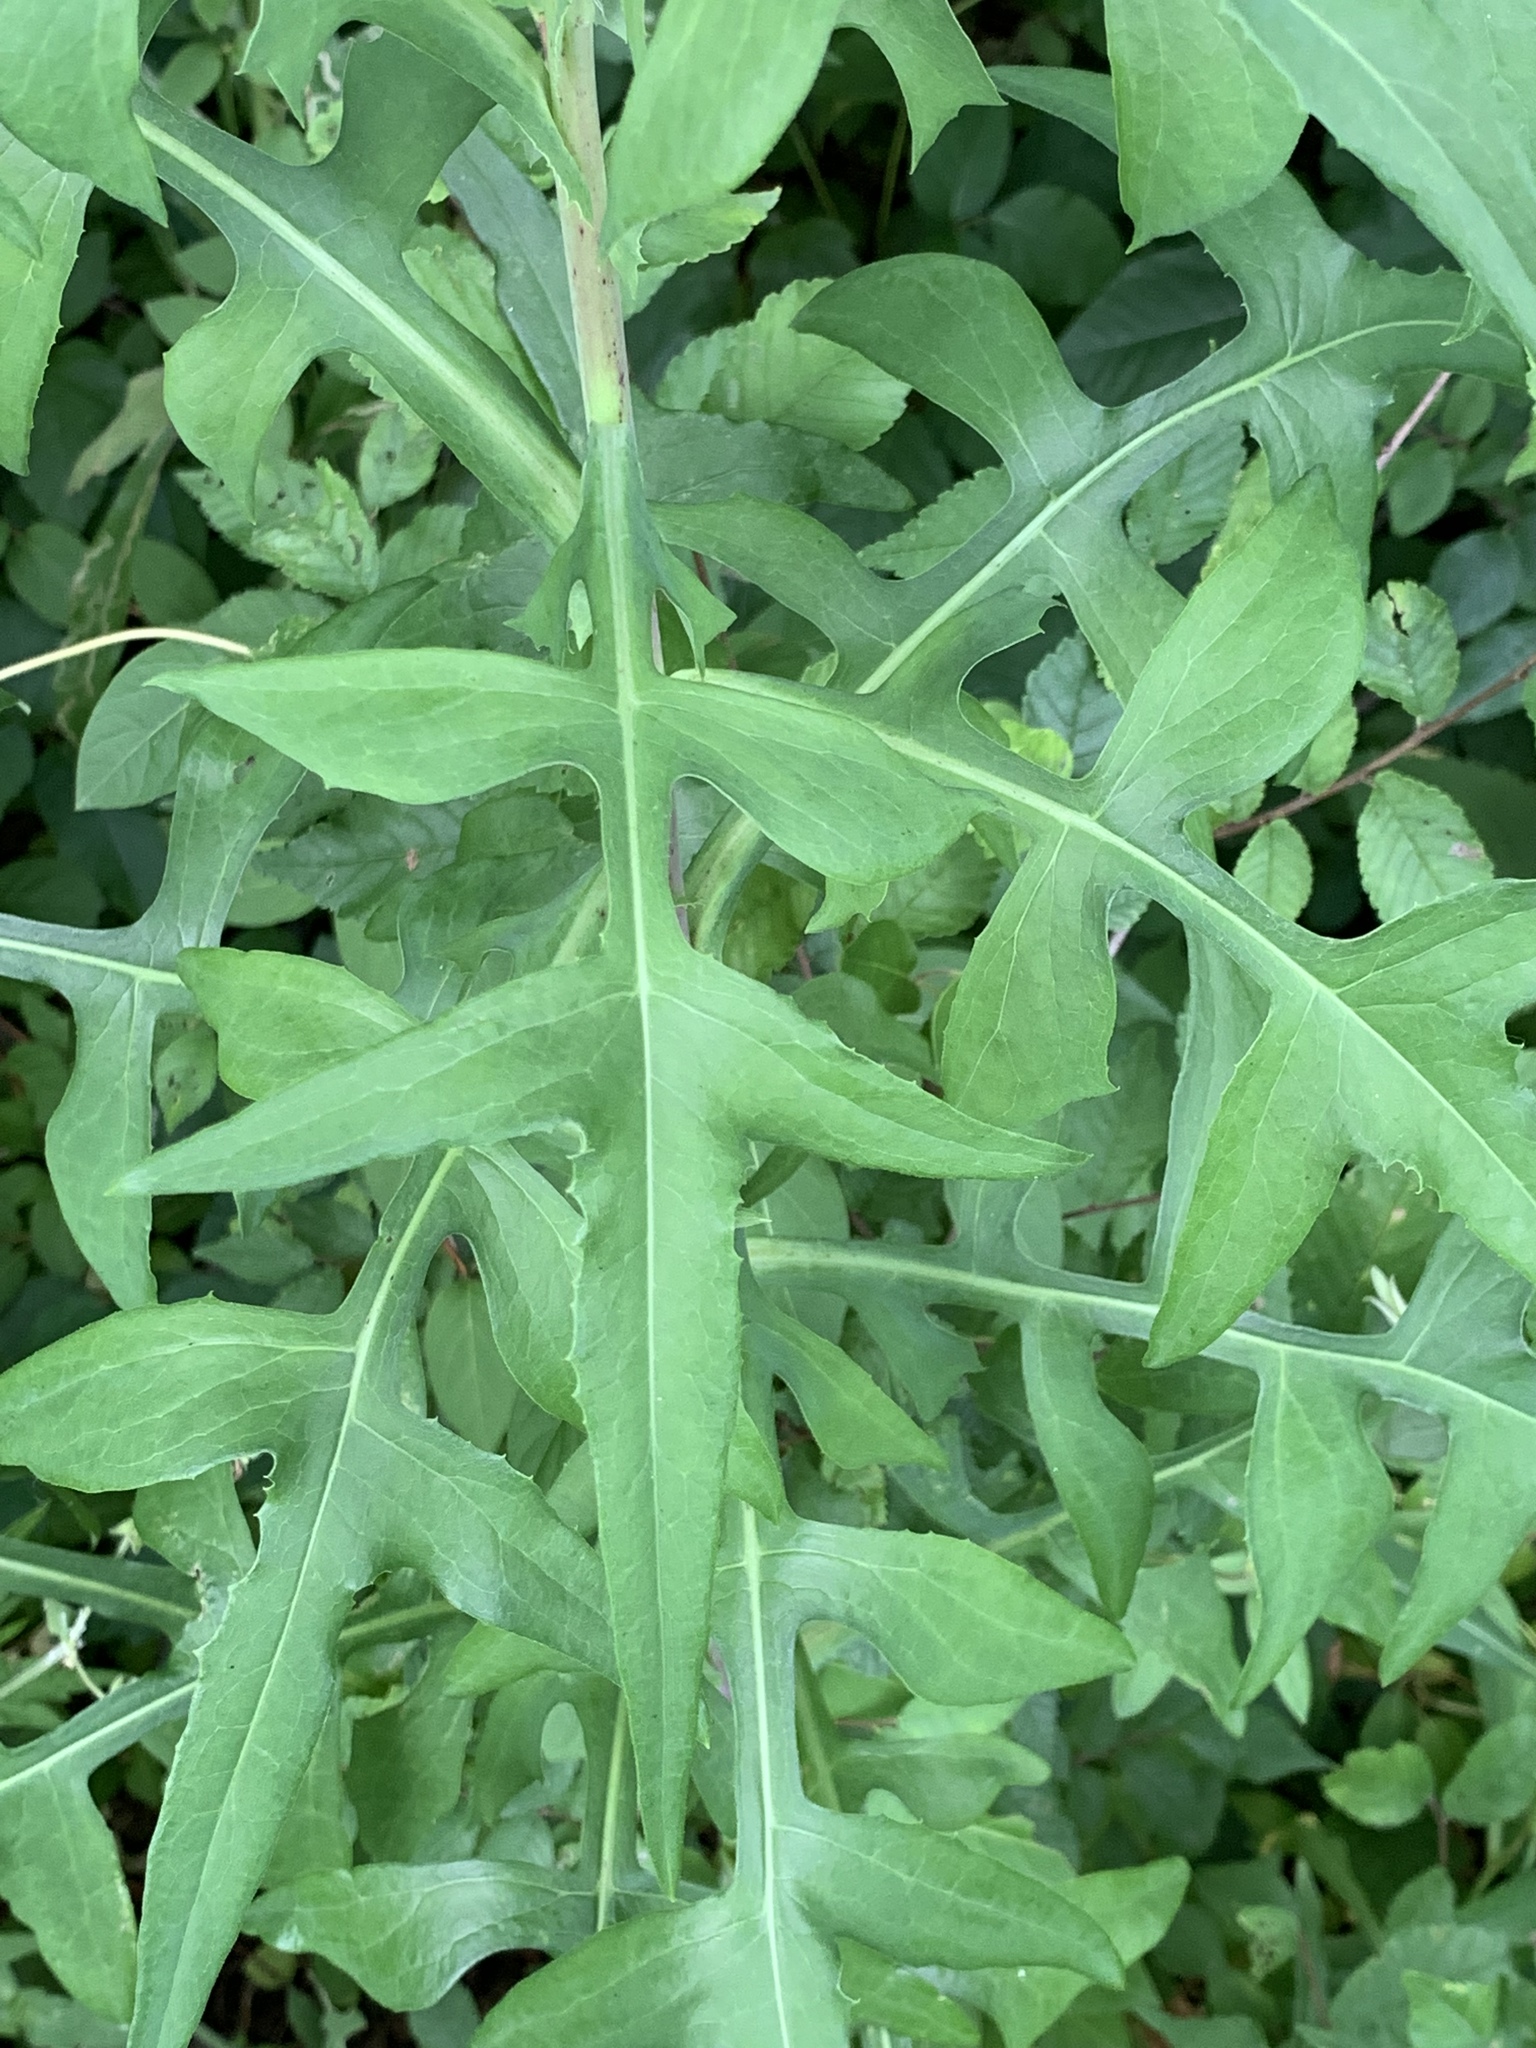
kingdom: Plantae
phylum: Tracheophyta
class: Magnoliopsida
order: Asterales
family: Asteraceae
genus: Lactuca
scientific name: Lactuca canadensis
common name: Canada lettuce
